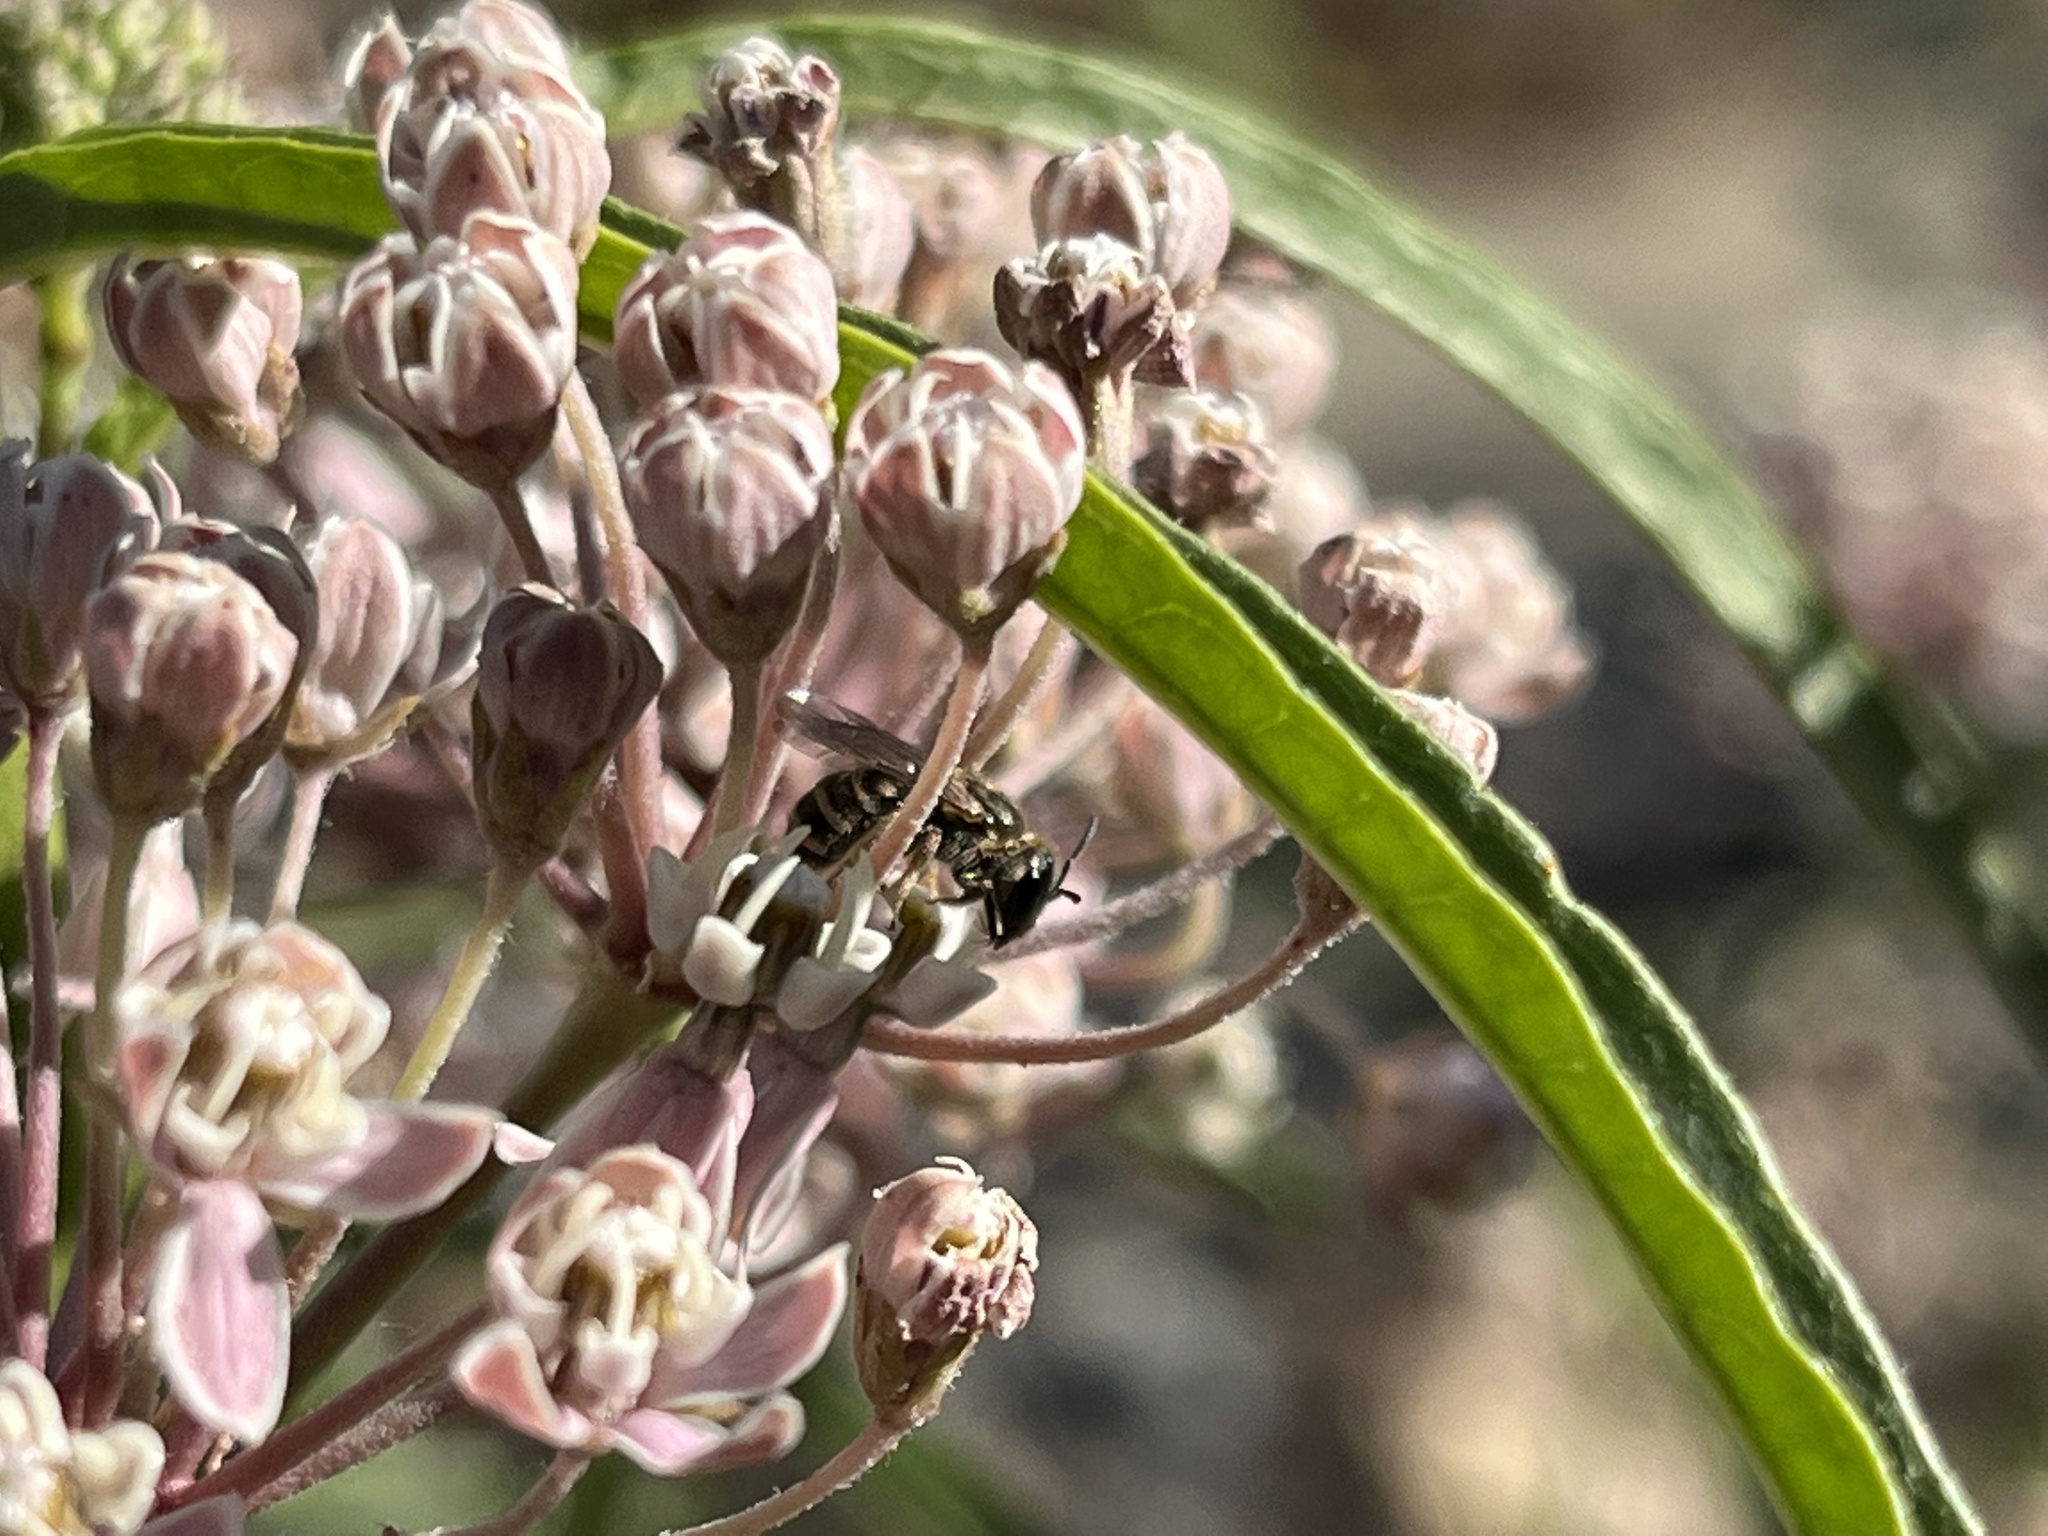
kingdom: Animalia
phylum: Arthropoda
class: Insecta
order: Hymenoptera
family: Halictidae
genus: Halictus
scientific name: Halictus tripartitus
